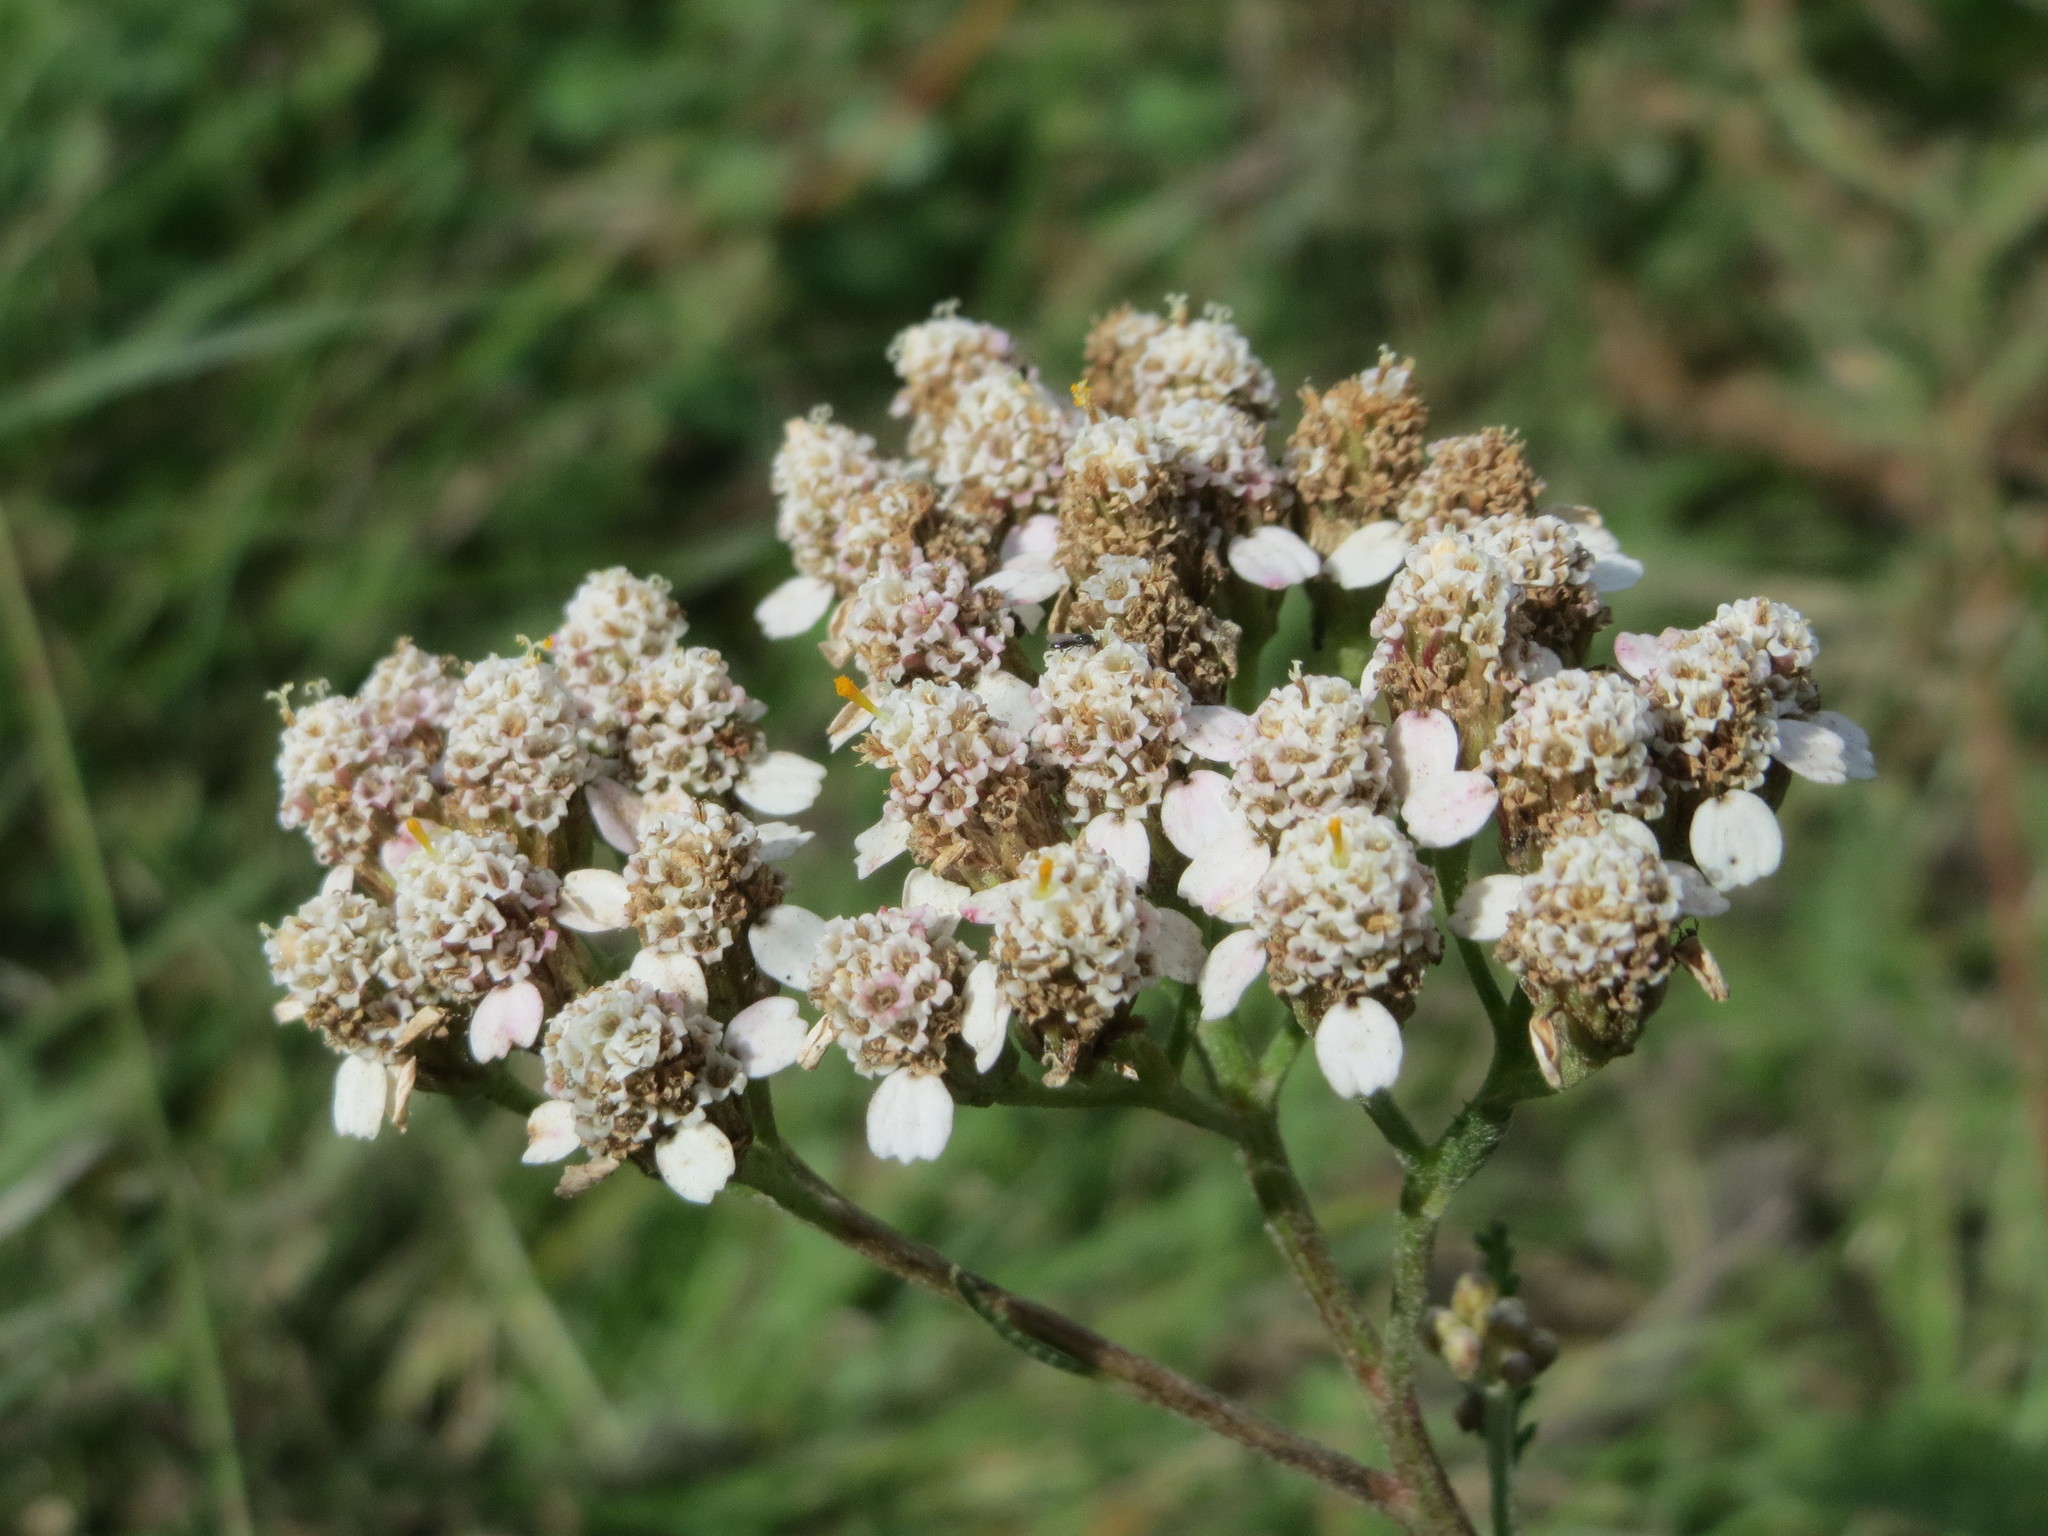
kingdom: Plantae
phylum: Tracheophyta
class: Magnoliopsida
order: Asterales
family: Asteraceae
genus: Achillea
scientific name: Achillea millefolium
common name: Yarrow
